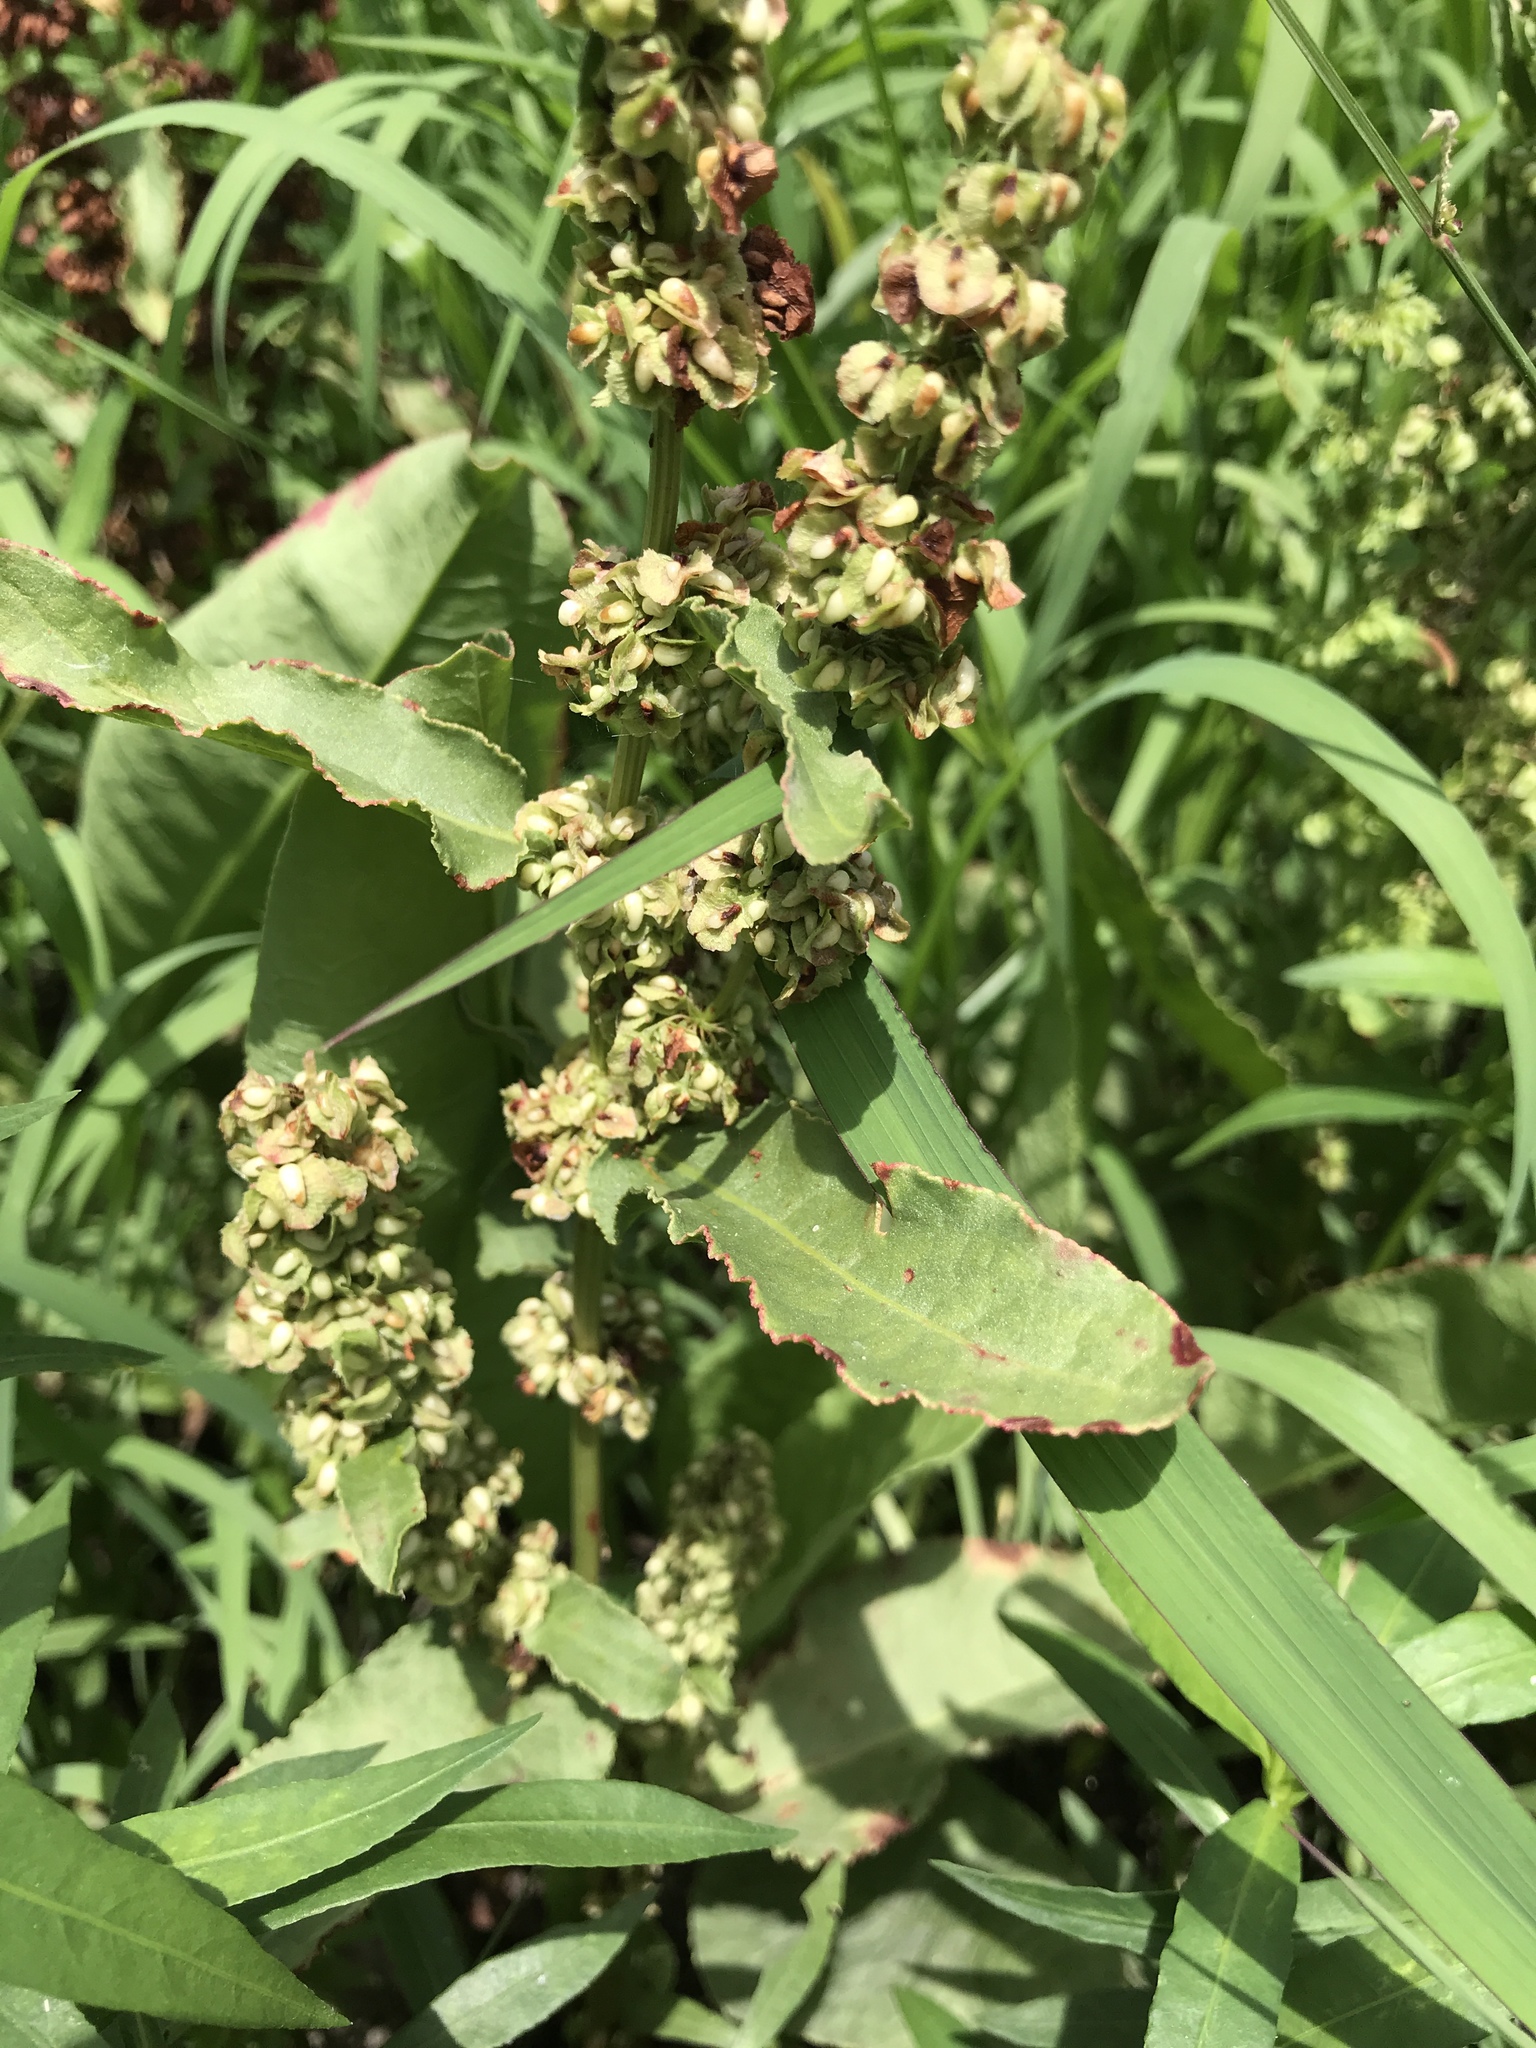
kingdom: Plantae
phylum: Tracheophyta
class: Magnoliopsida
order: Caryophyllales
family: Polygonaceae
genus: Rumex
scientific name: Rumex crispus
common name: Curled dock
